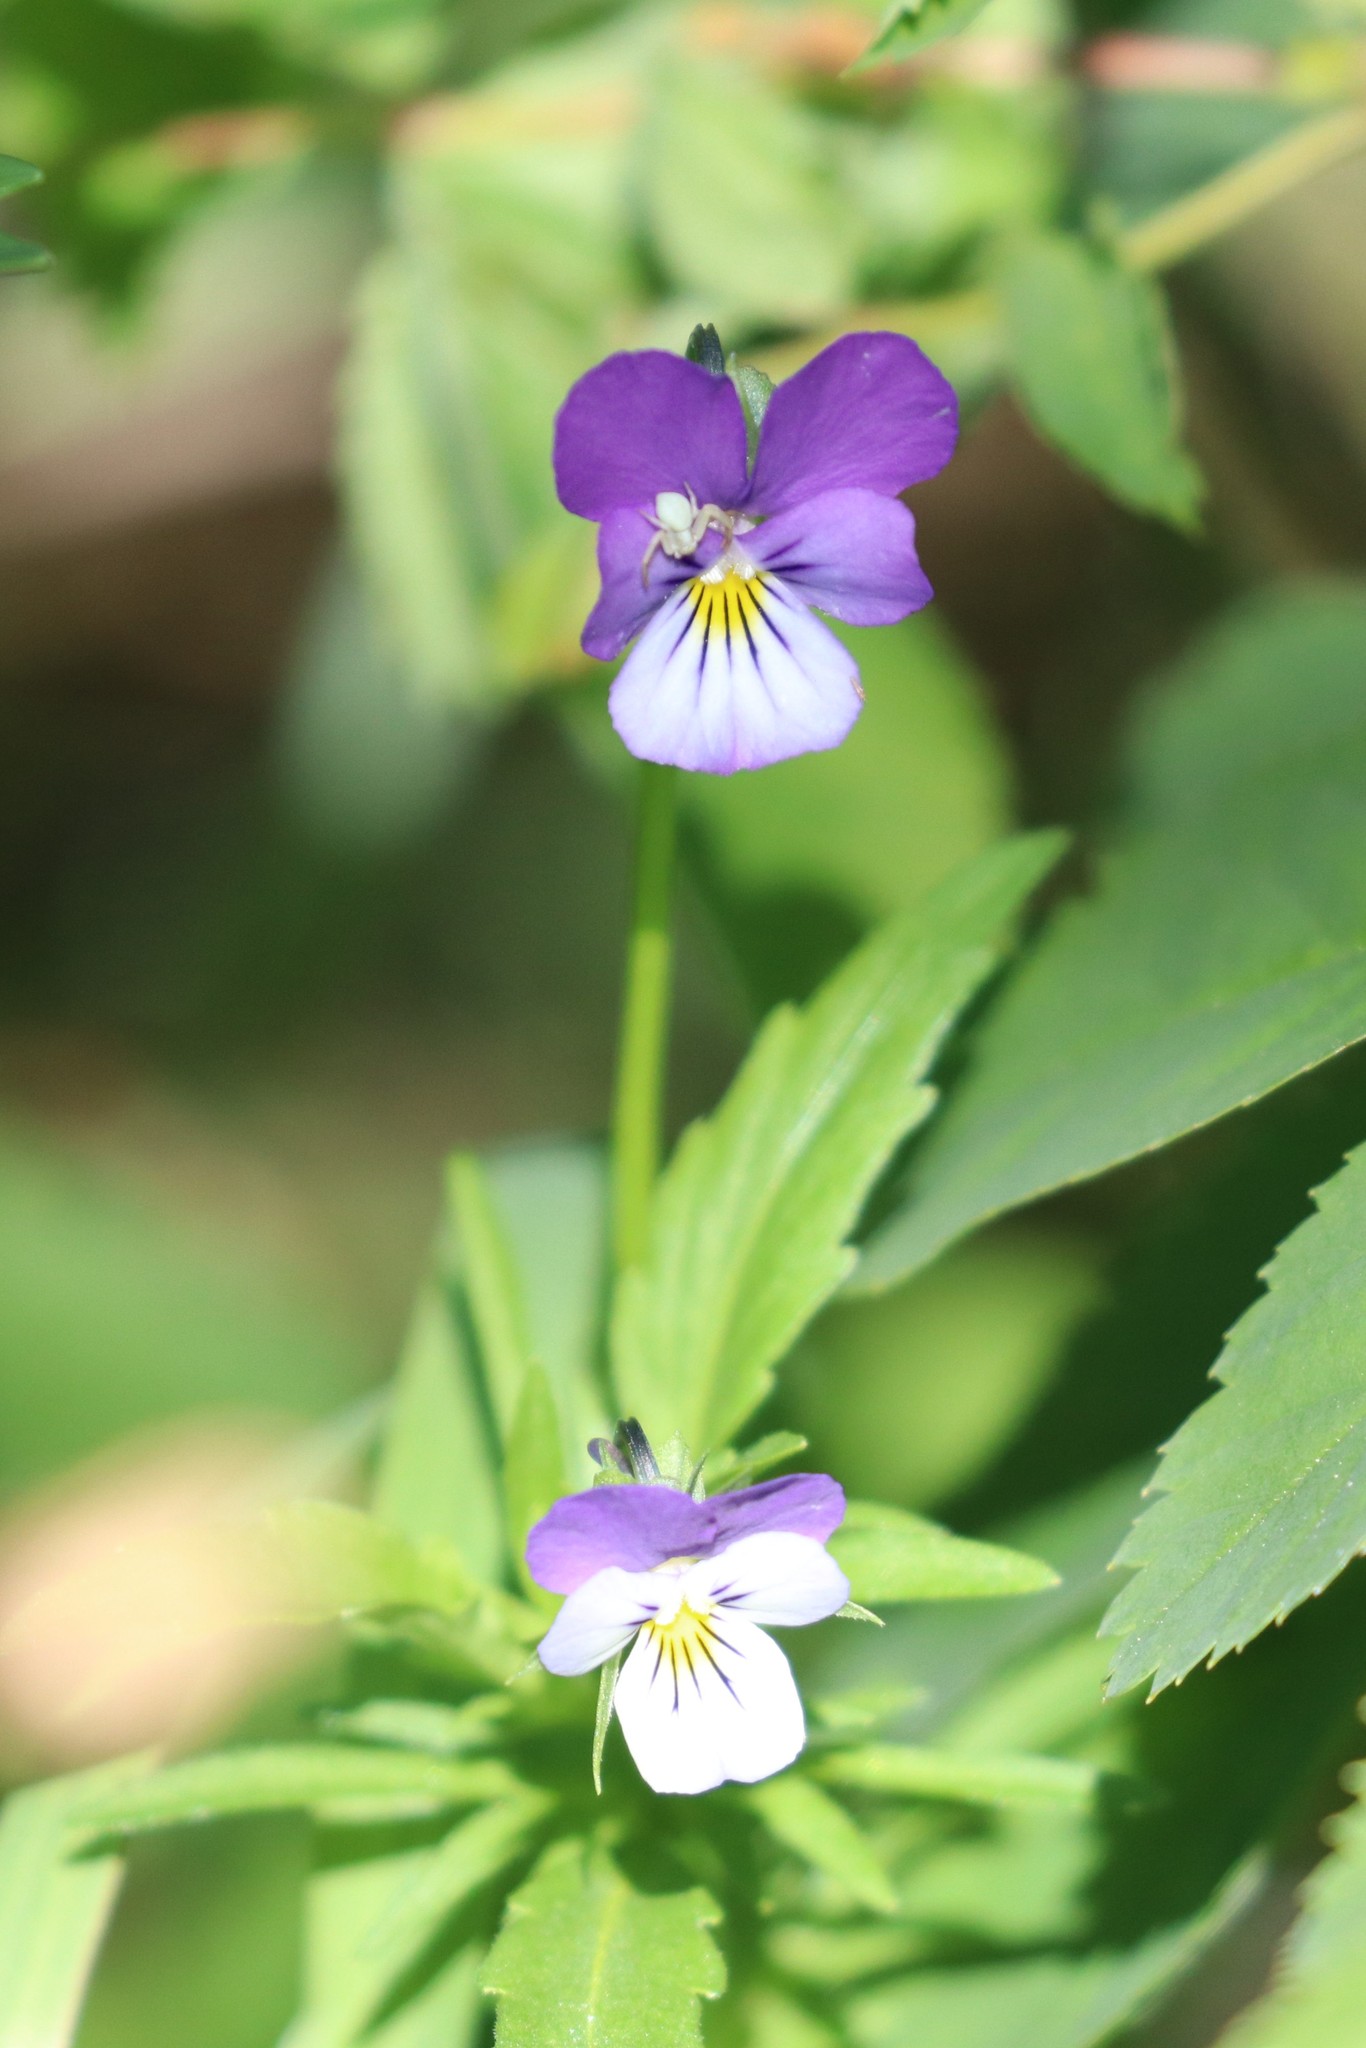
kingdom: Plantae
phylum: Tracheophyta
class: Magnoliopsida
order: Malpighiales
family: Violaceae
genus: Viola
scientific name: Viola tricolor
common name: Pansy
